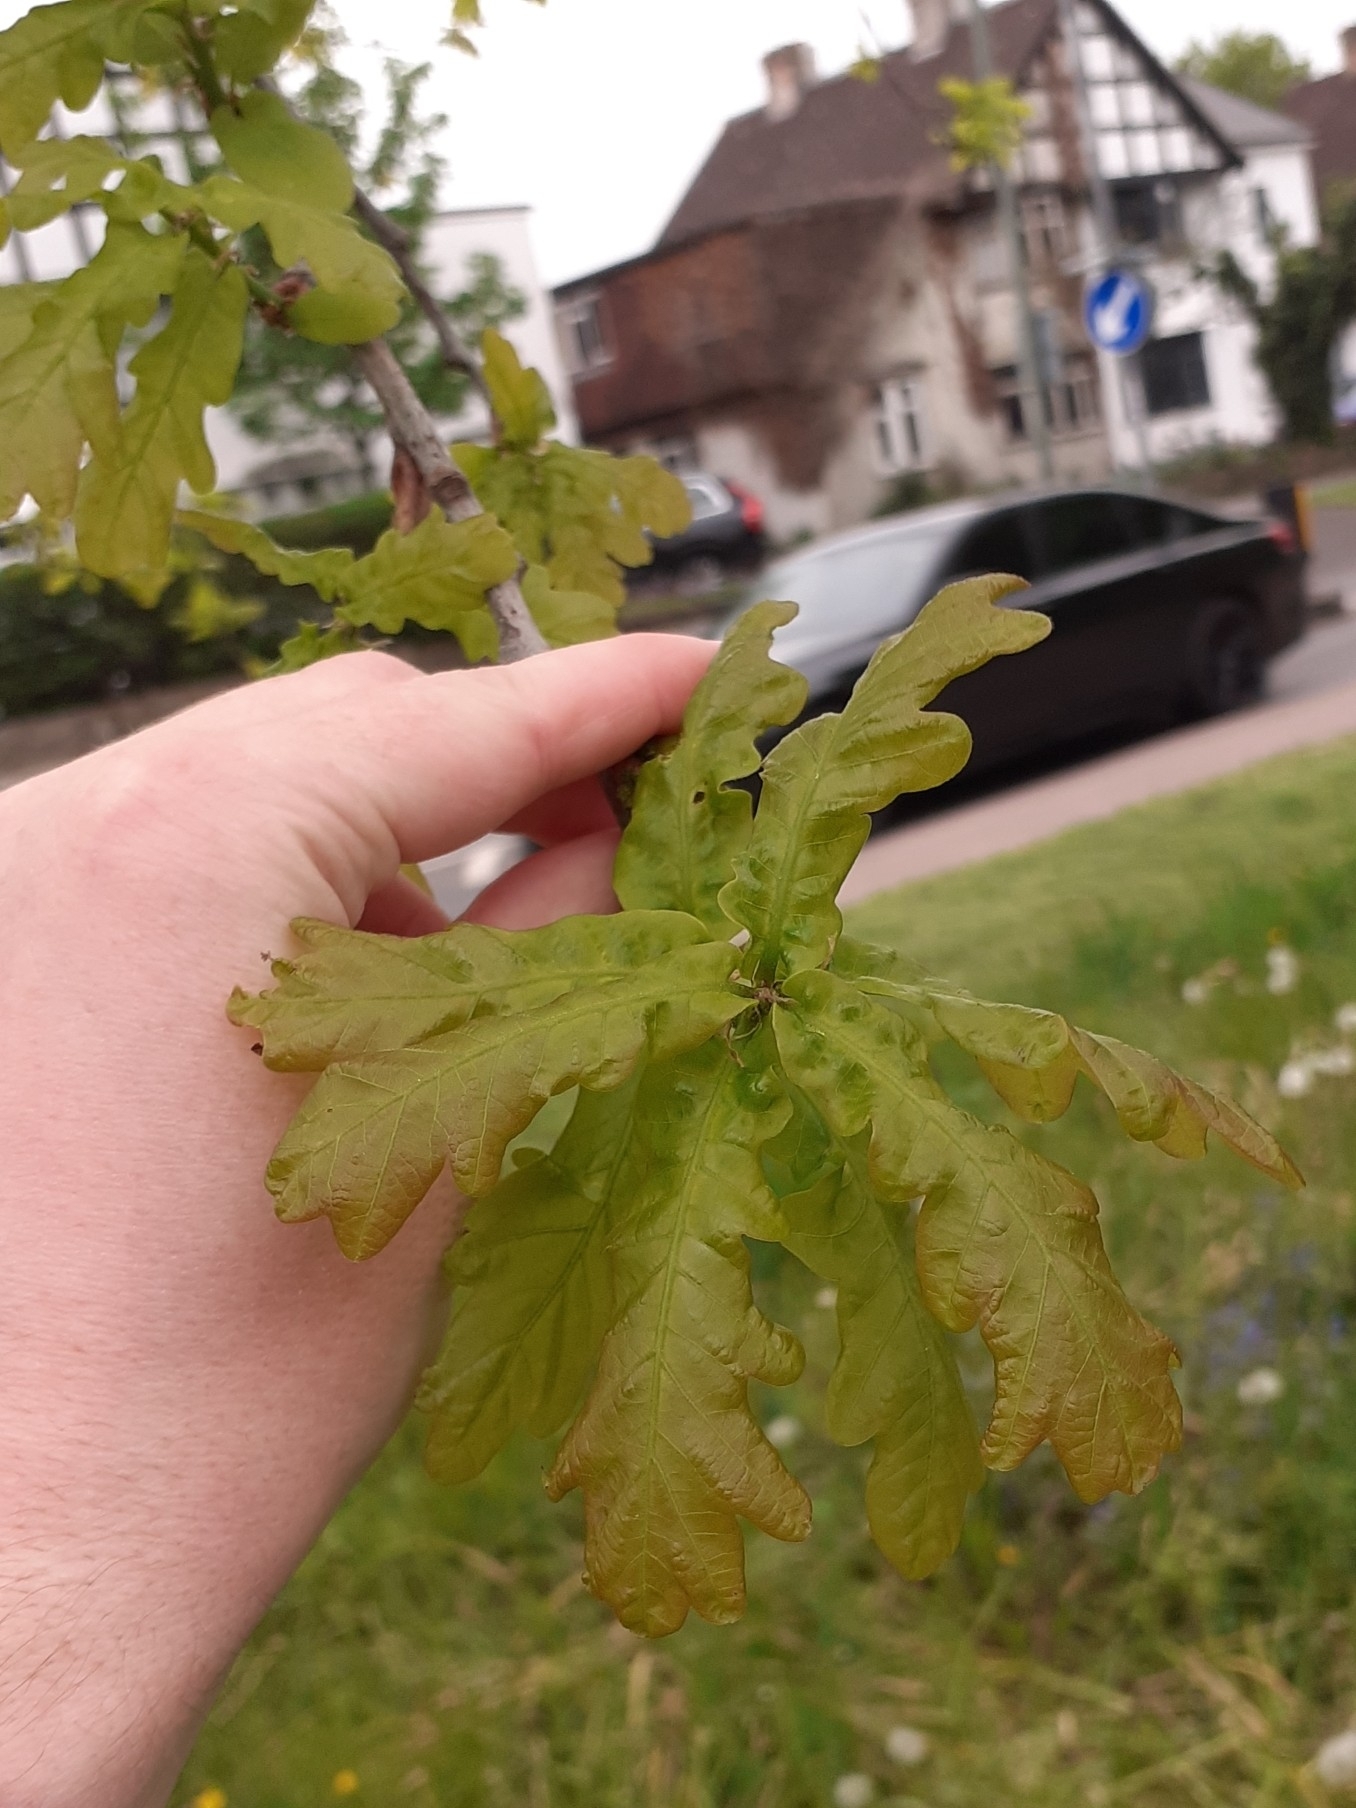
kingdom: Plantae
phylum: Tracheophyta
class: Magnoliopsida
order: Fagales
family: Fagaceae
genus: Quercus
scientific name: Quercus robur
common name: Pedunculate oak
